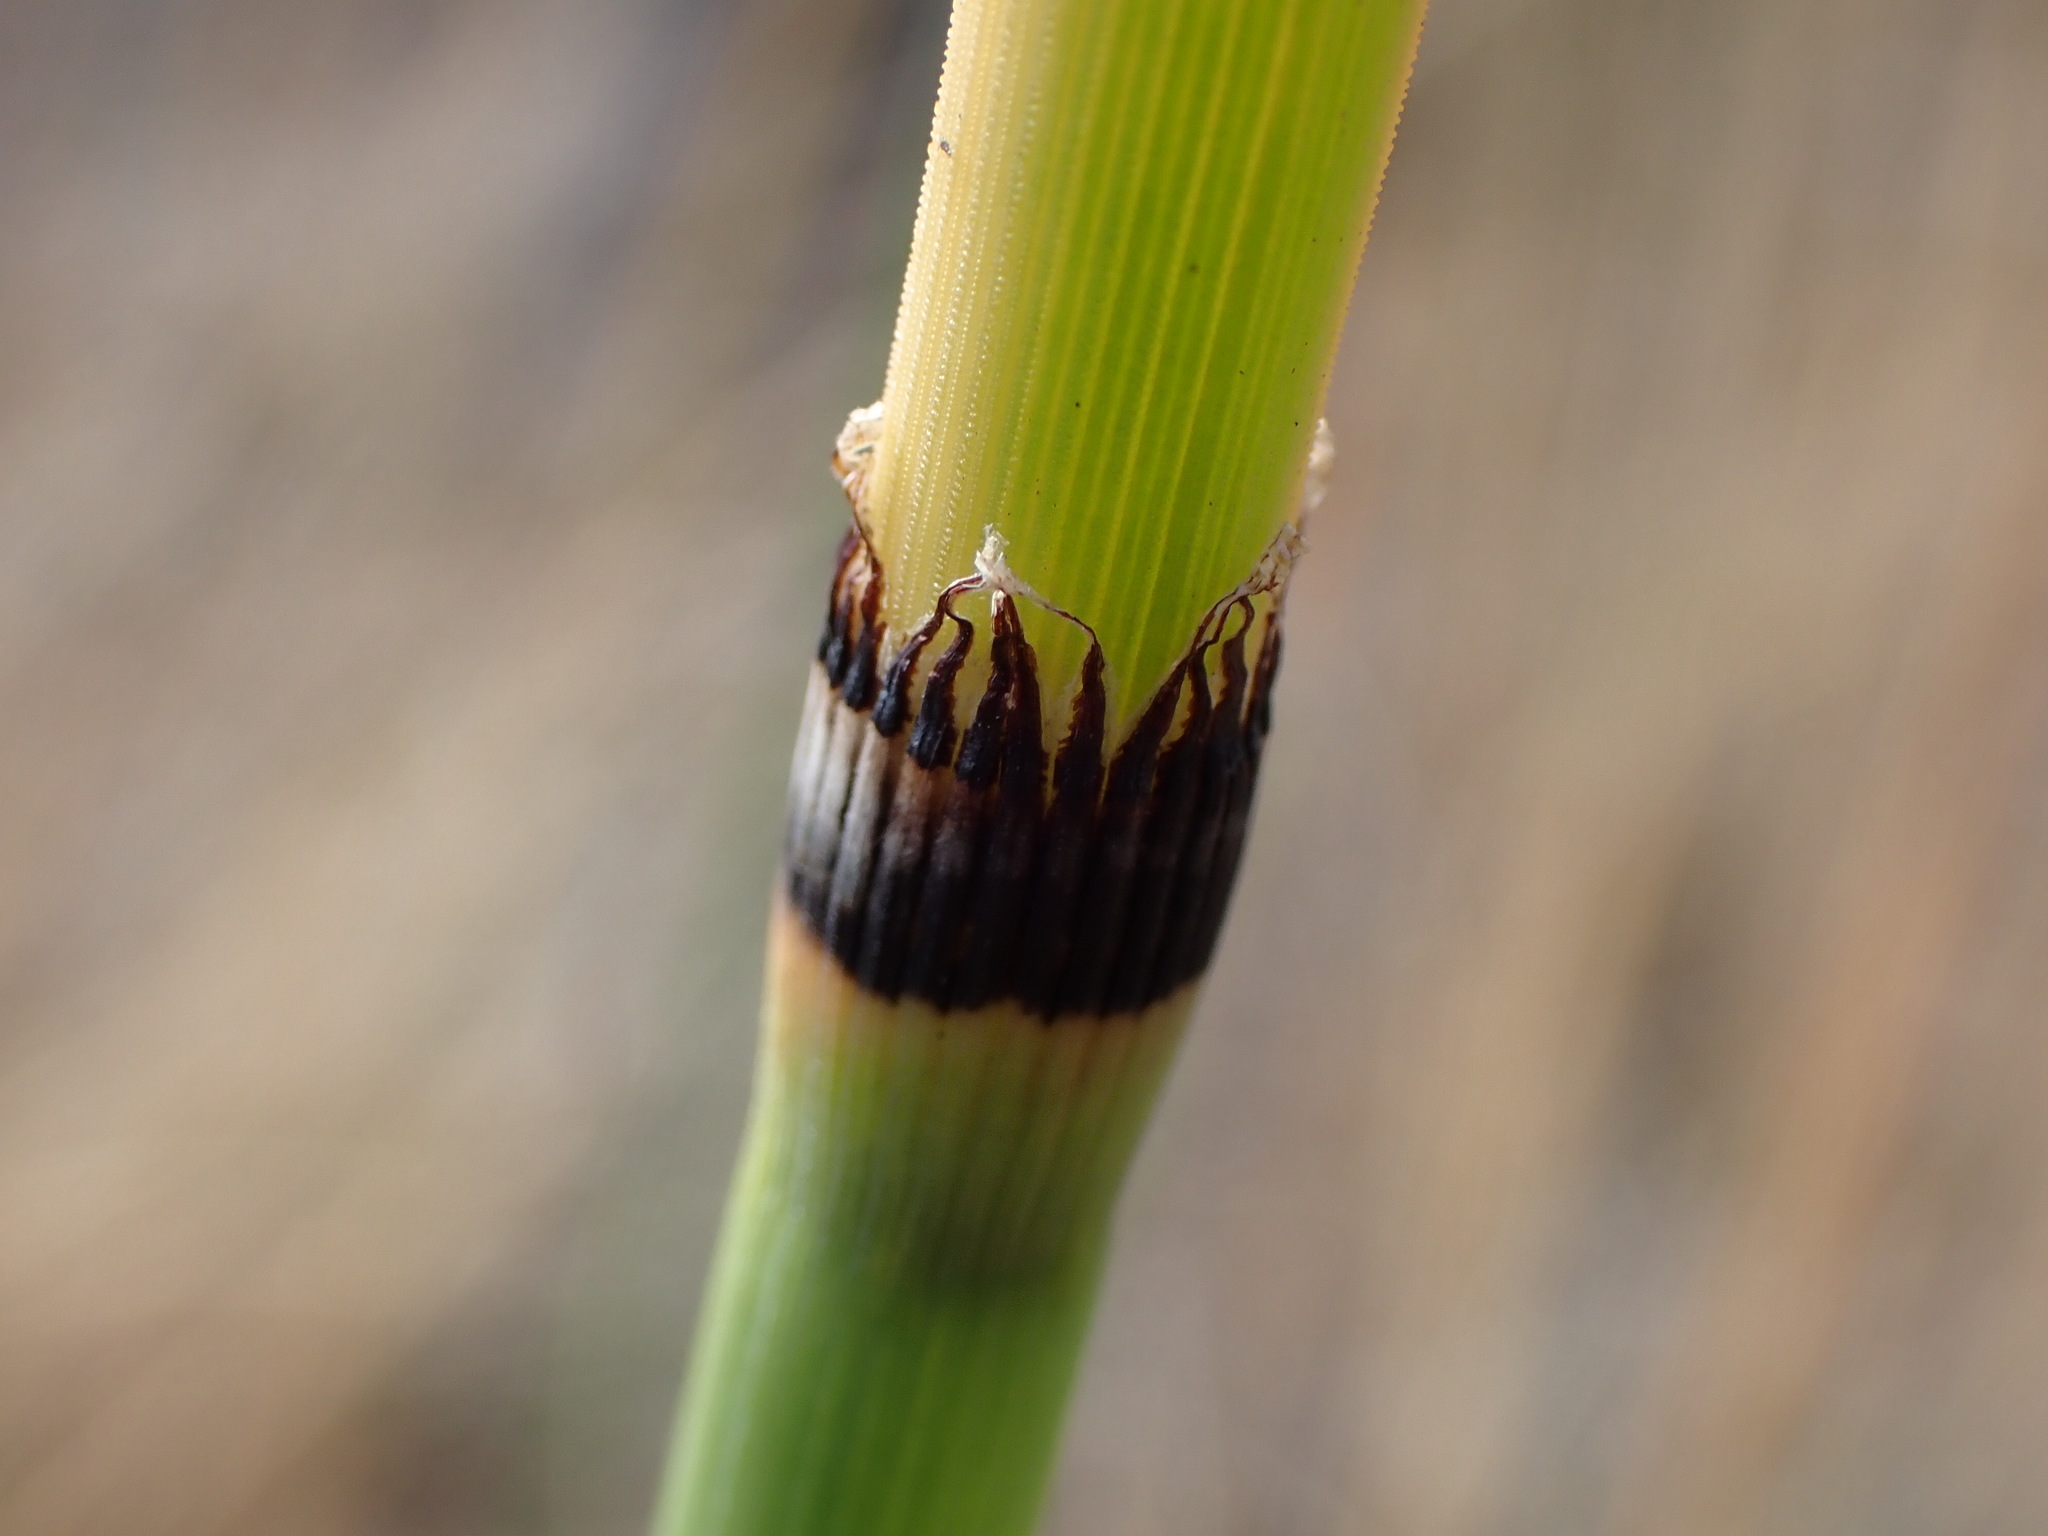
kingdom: Plantae
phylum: Tracheophyta
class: Polypodiopsida
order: Equisetales
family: Equisetaceae
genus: Equisetum
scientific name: Equisetum hyemale
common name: Rough horsetail
